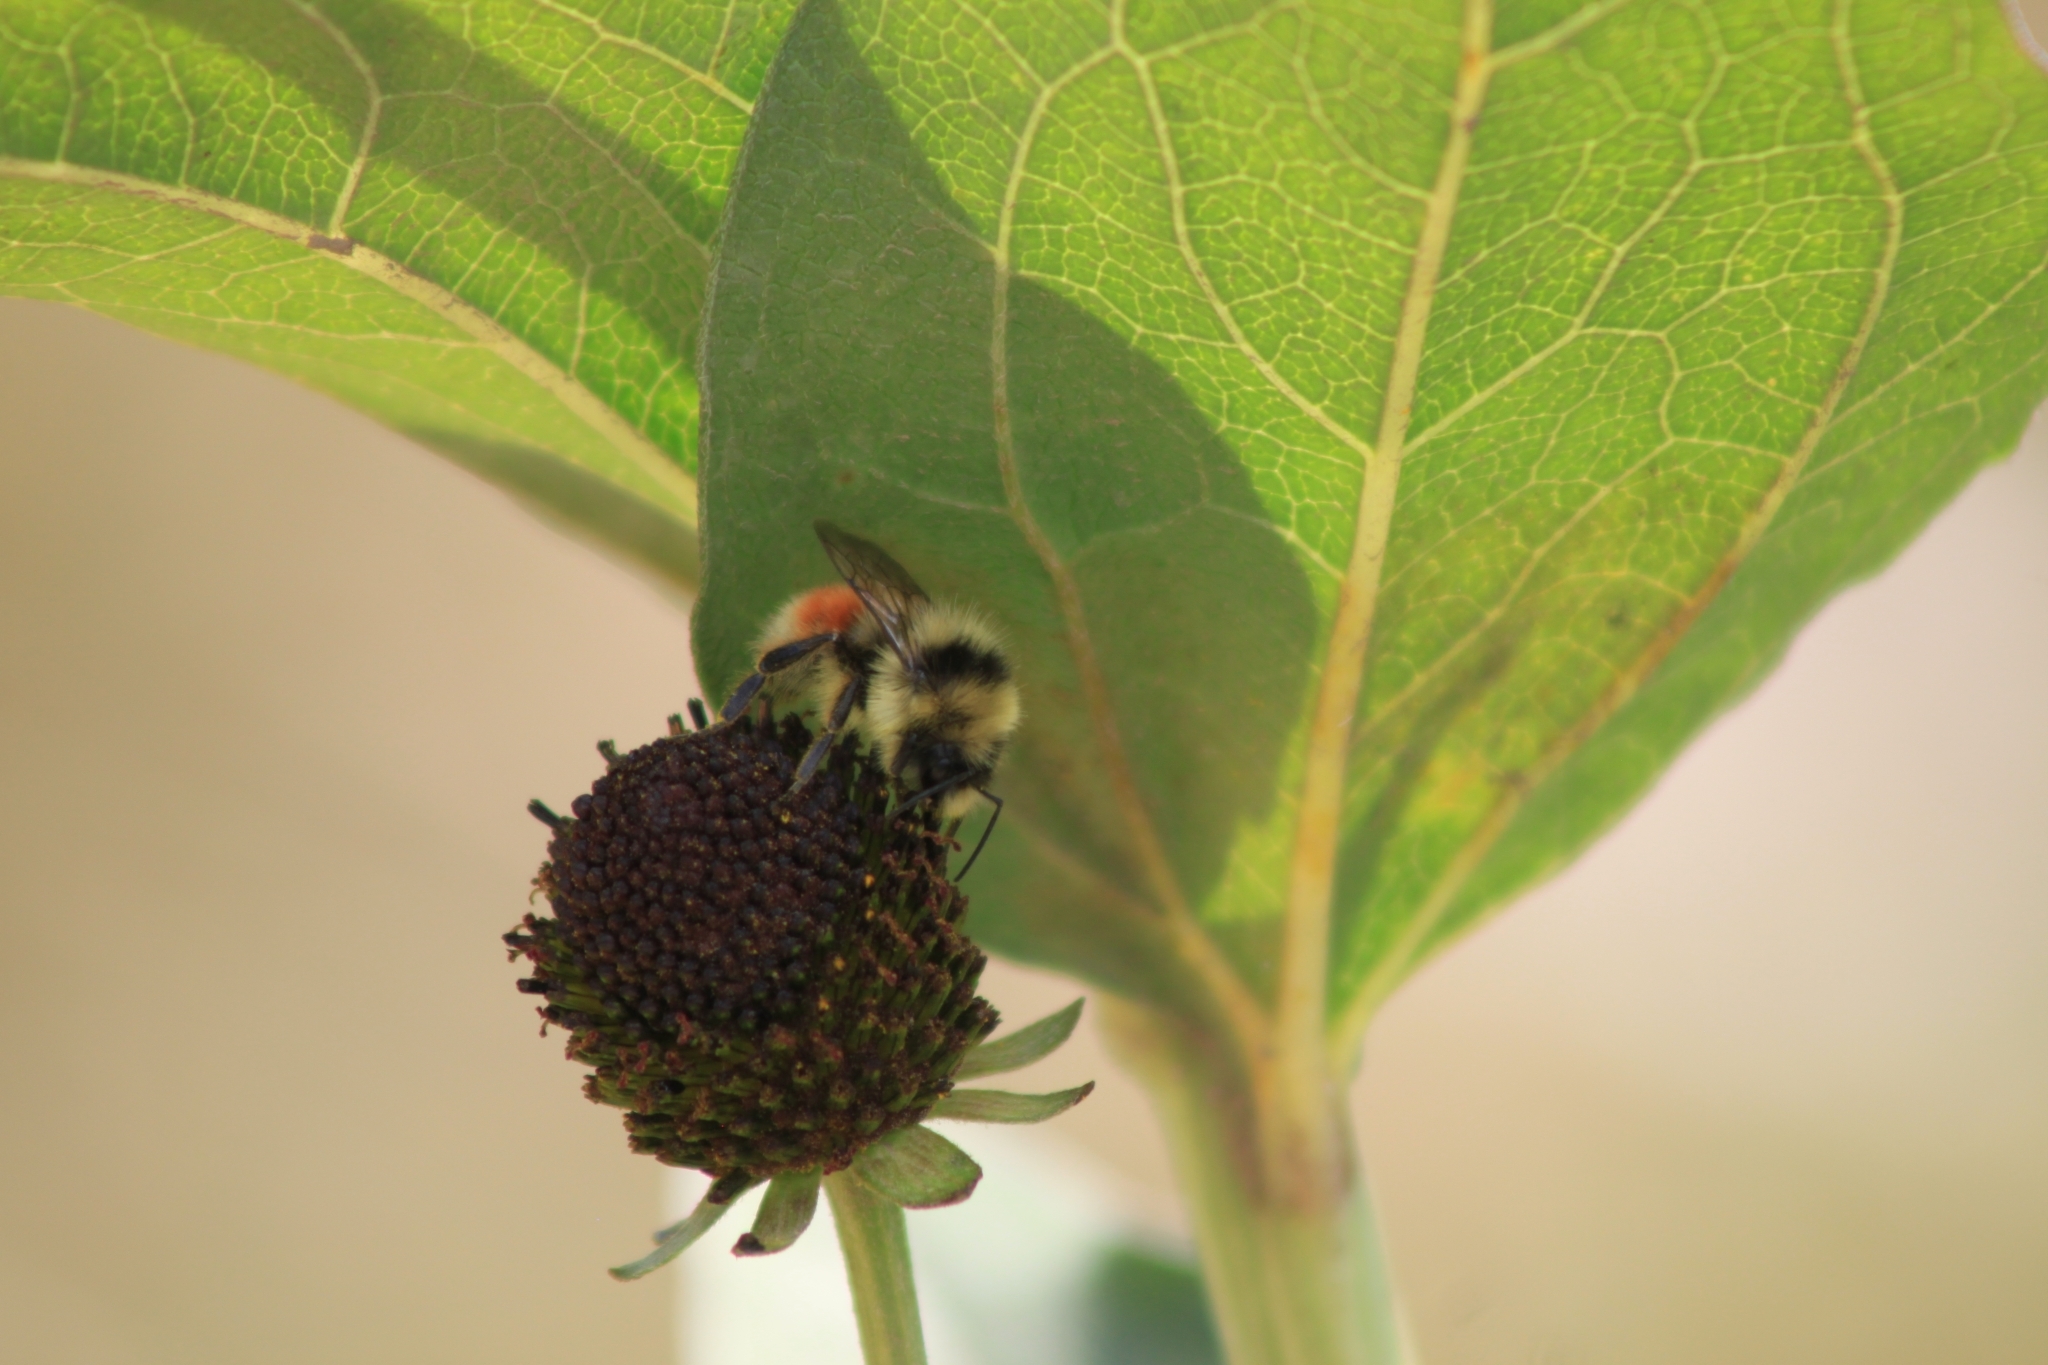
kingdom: Animalia
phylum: Arthropoda
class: Insecta
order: Hymenoptera
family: Apidae
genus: Bombus
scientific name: Bombus huntii
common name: Hunt bumble bee
